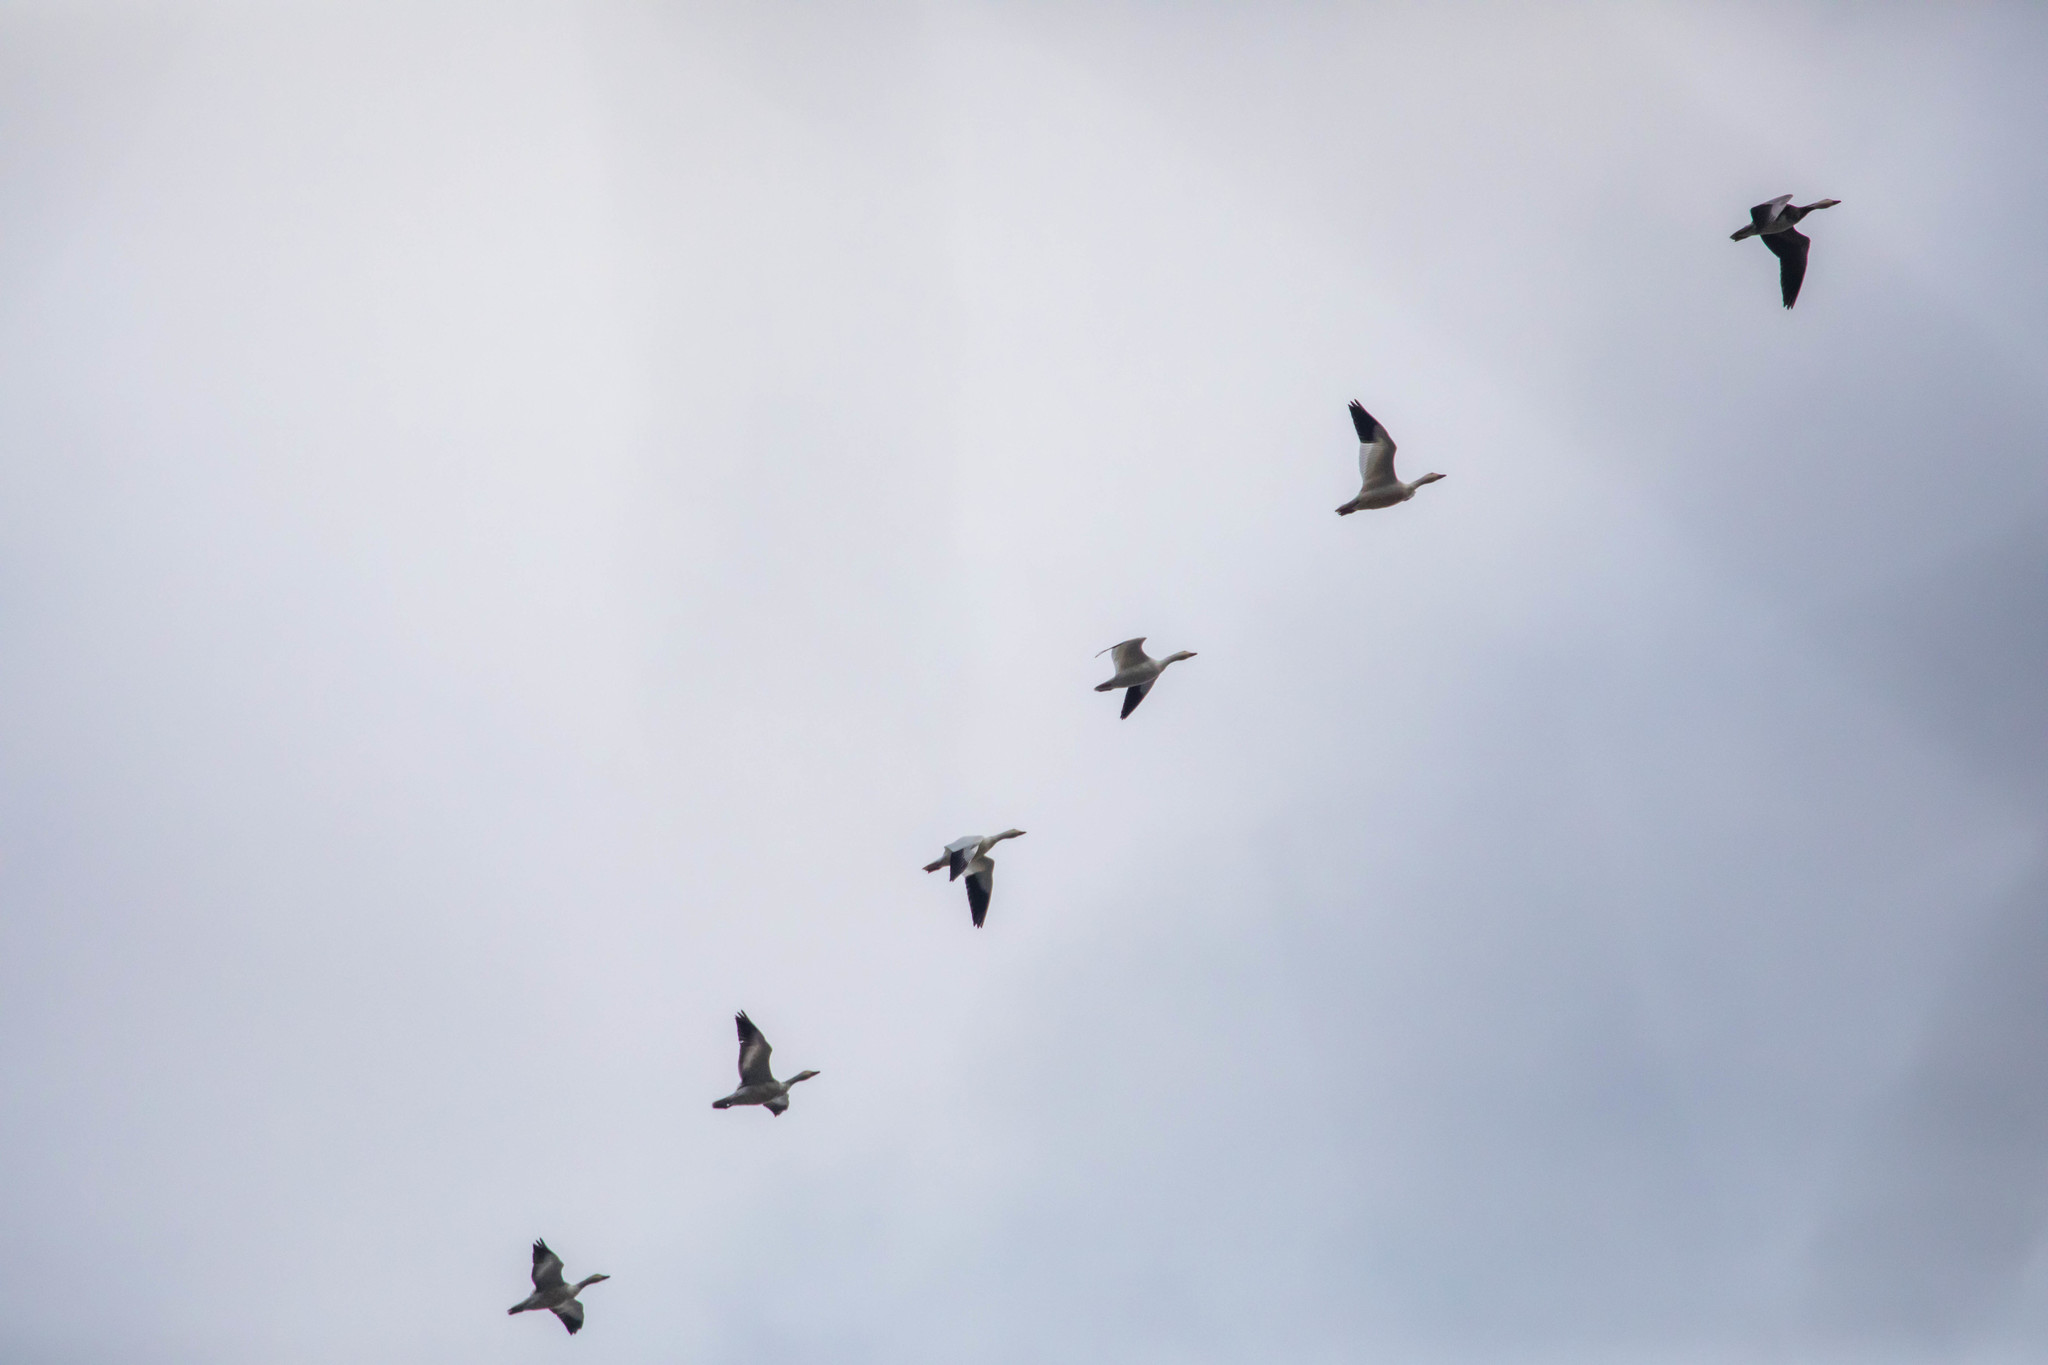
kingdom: Animalia
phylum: Chordata
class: Aves
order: Anseriformes
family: Anatidae
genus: Anser
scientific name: Anser caerulescens
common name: Snow goose
